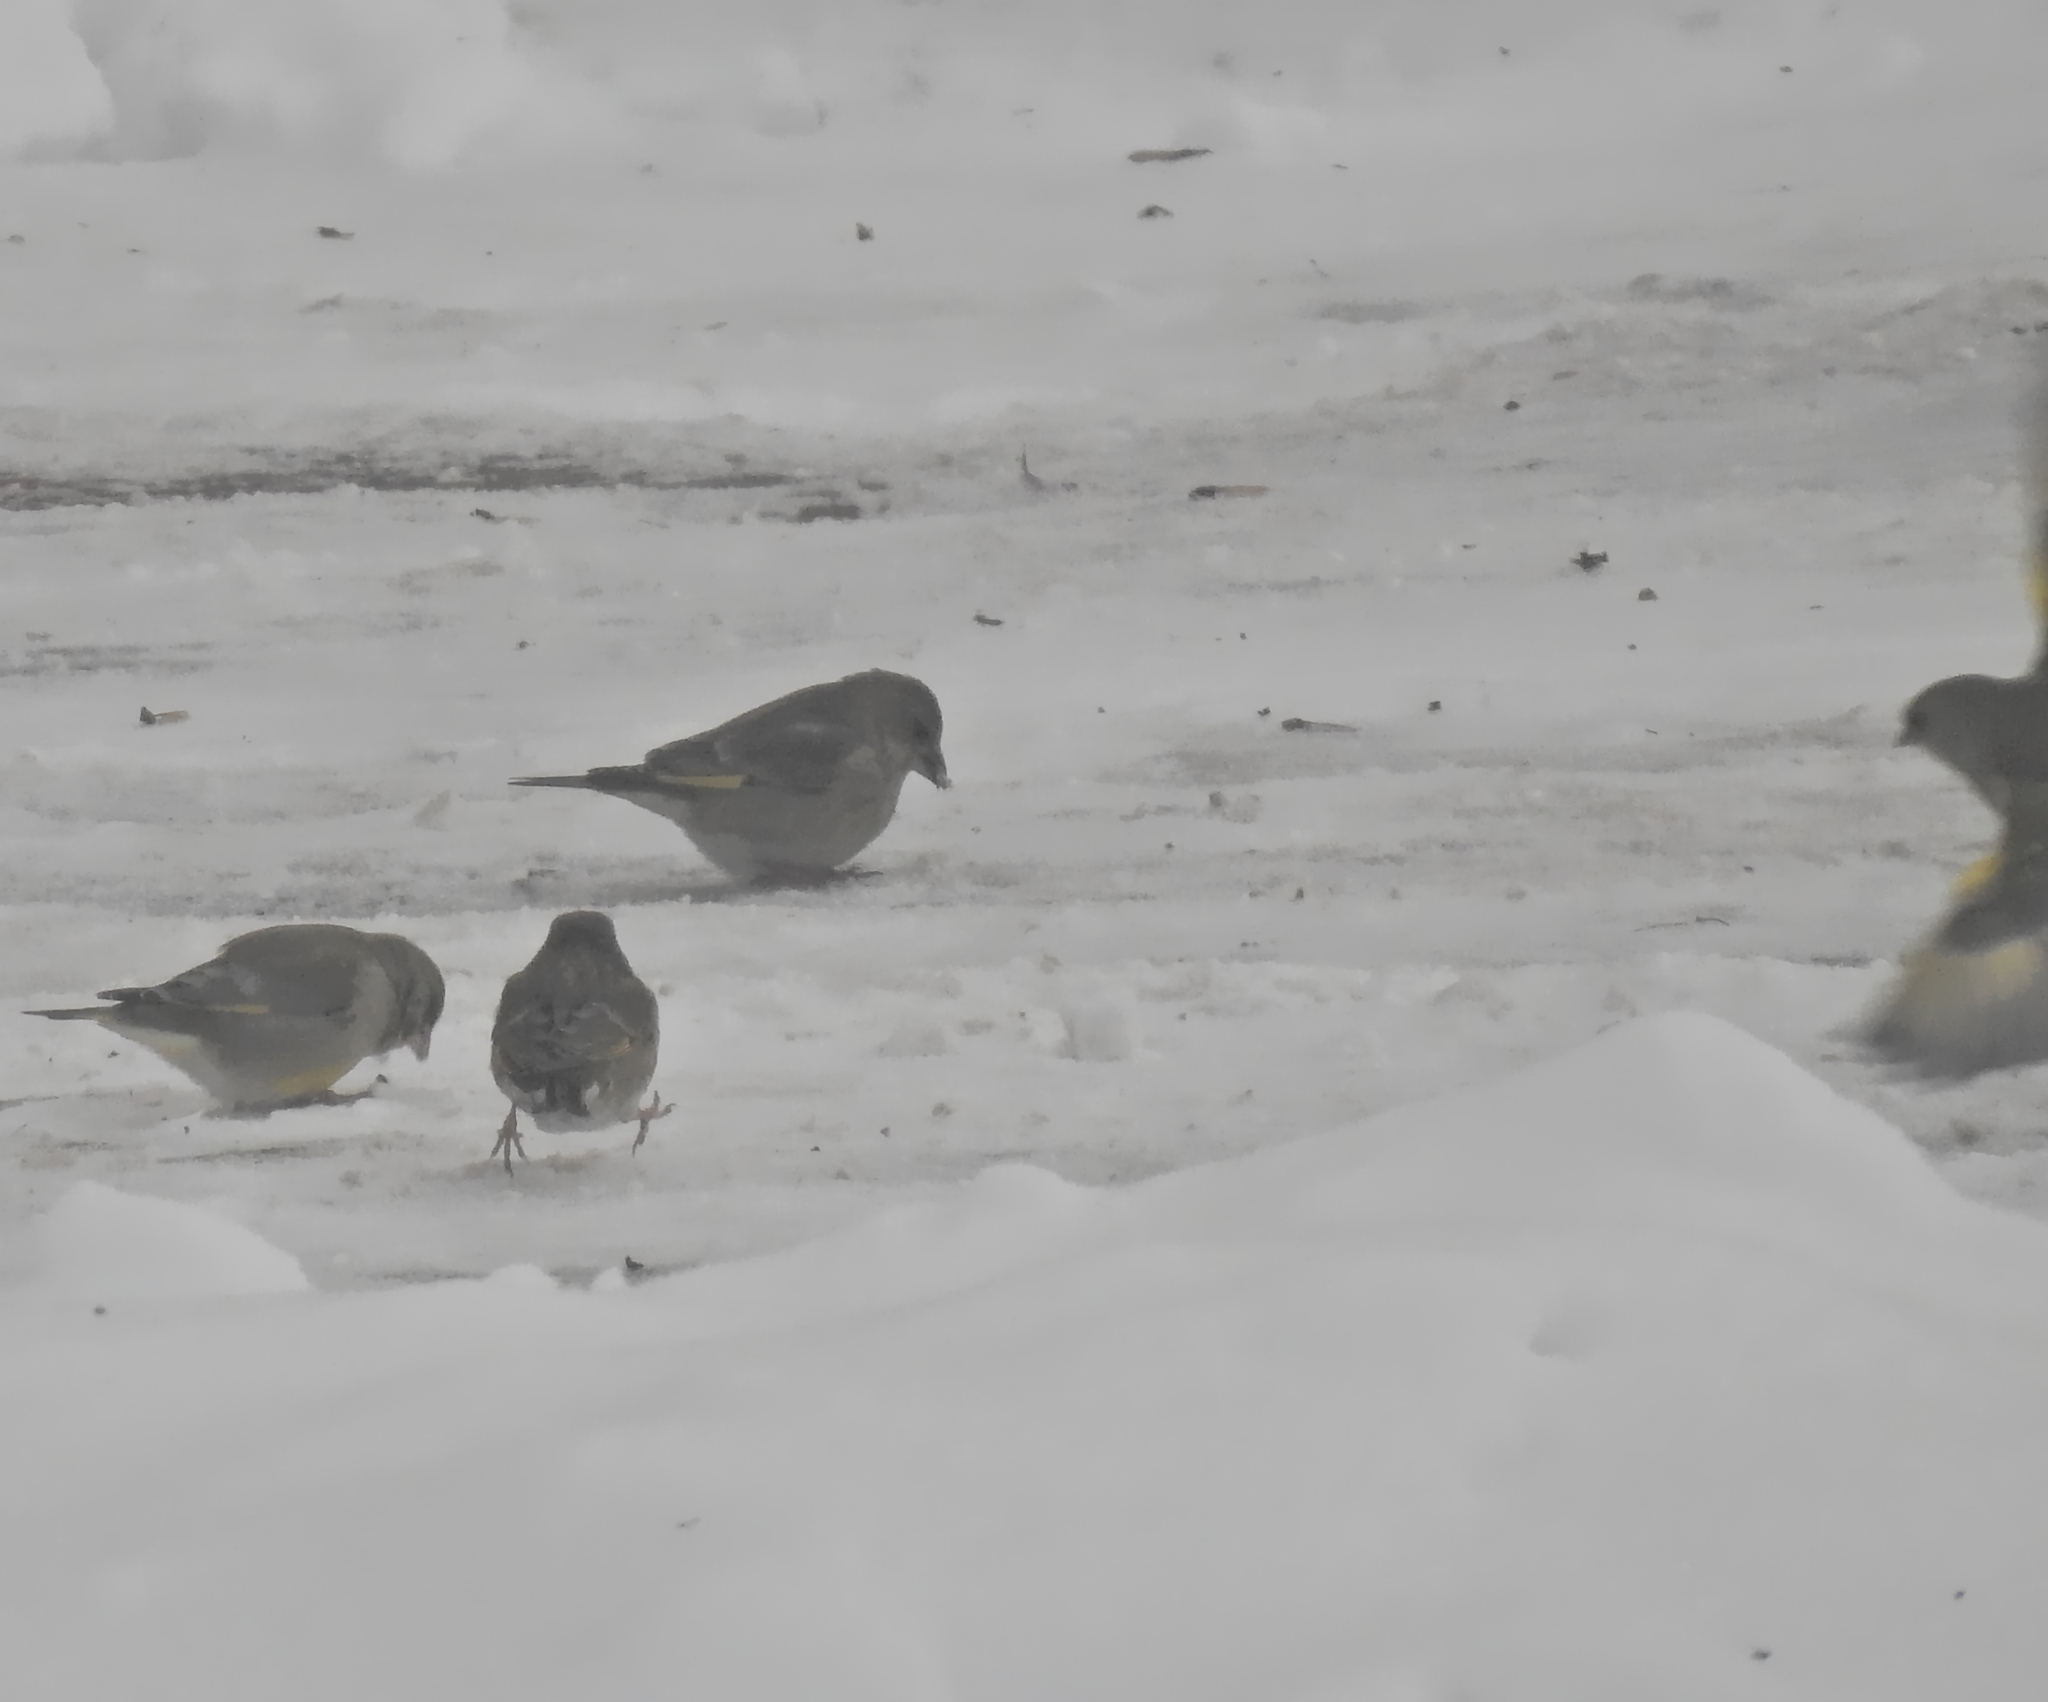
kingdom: Plantae
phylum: Tracheophyta
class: Liliopsida
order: Poales
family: Poaceae
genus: Chloris
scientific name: Chloris chloris
